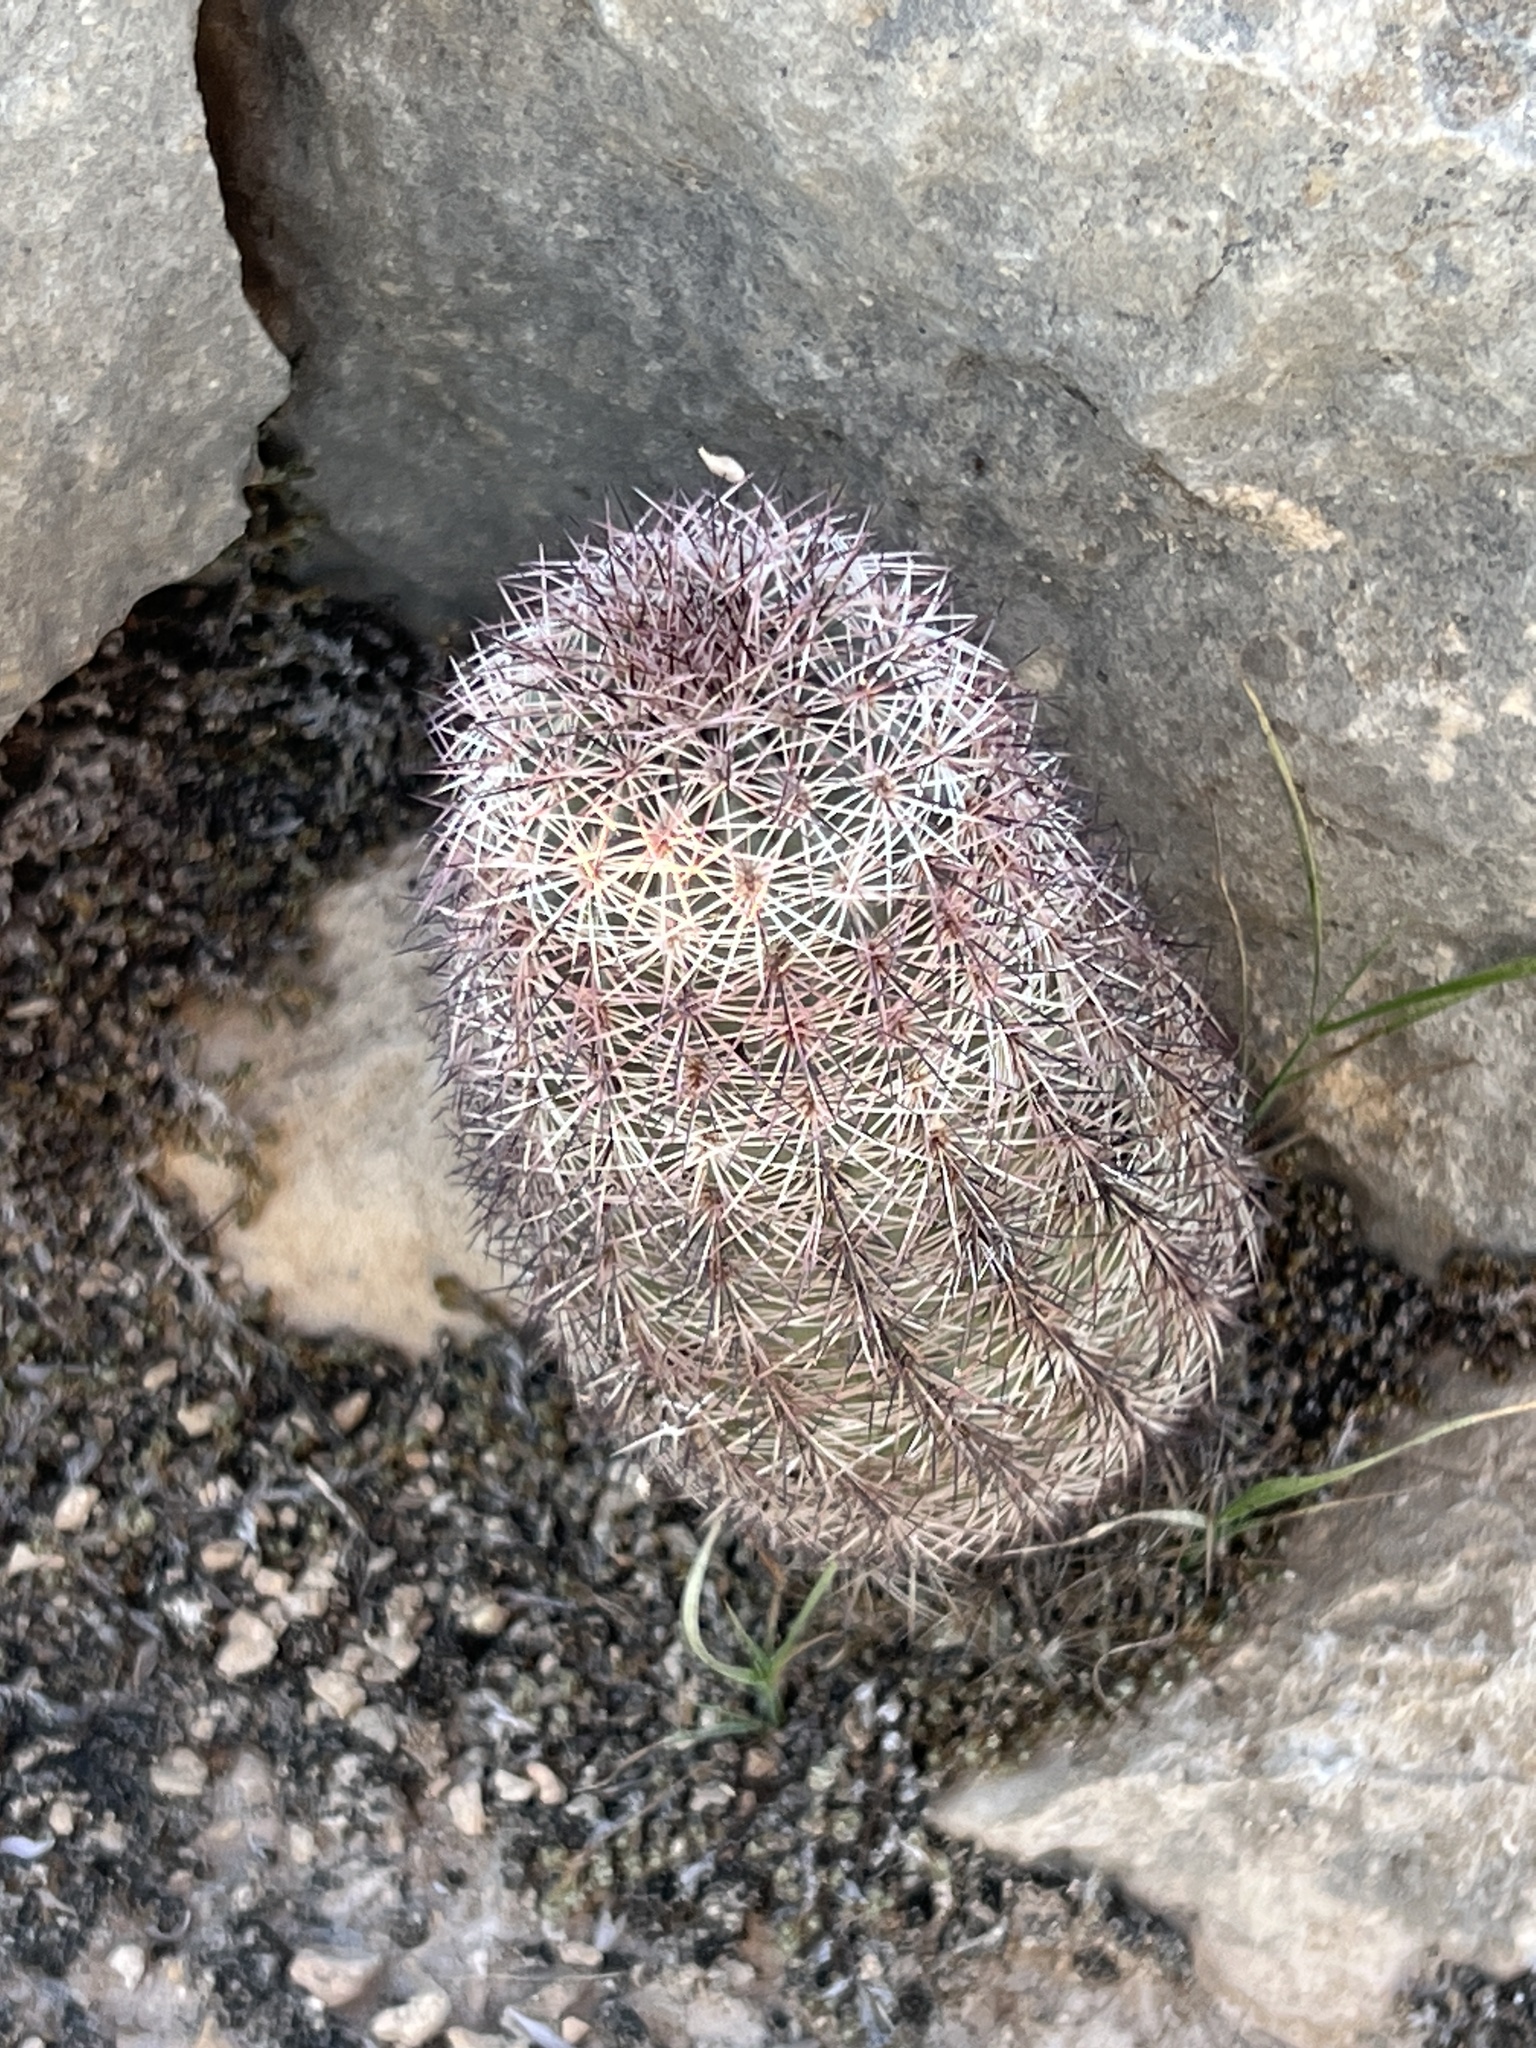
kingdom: Plantae
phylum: Tracheophyta
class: Magnoliopsida
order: Caryophyllales
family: Cactaceae
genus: Echinocereus
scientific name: Echinocereus dasyacanthus
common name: Spiny hedgehog cactus
